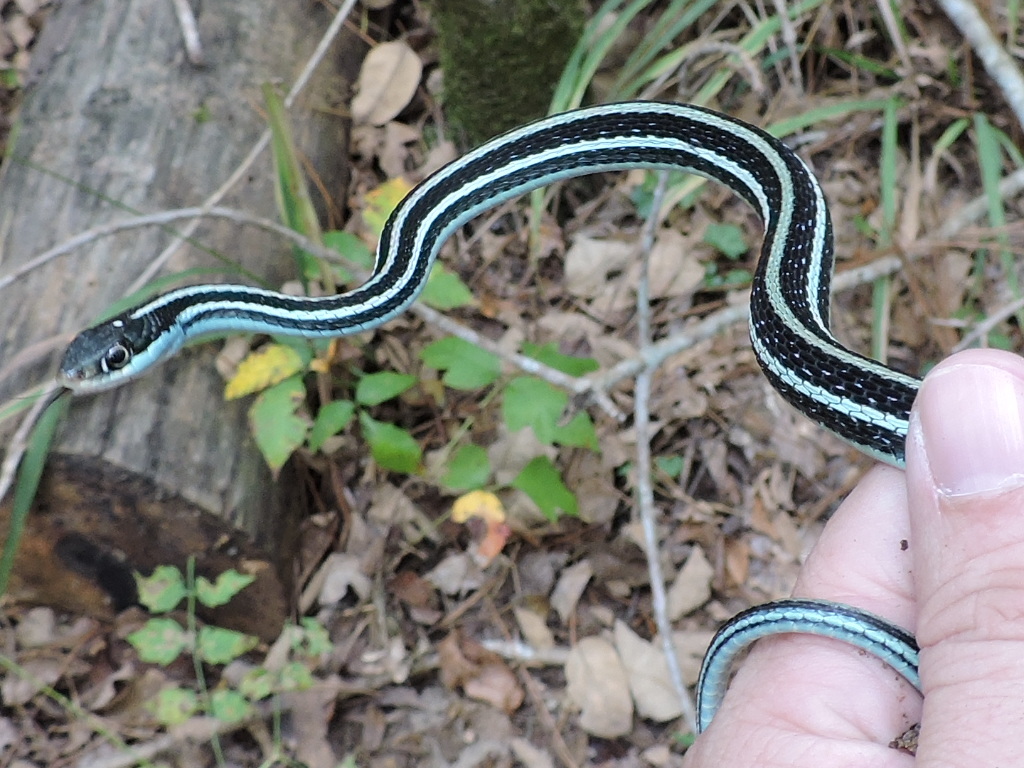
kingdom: Animalia
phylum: Chordata
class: Squamata
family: Colubridae
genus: Thamnophis
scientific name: Thamnophis proximus
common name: Western ribbon snake
